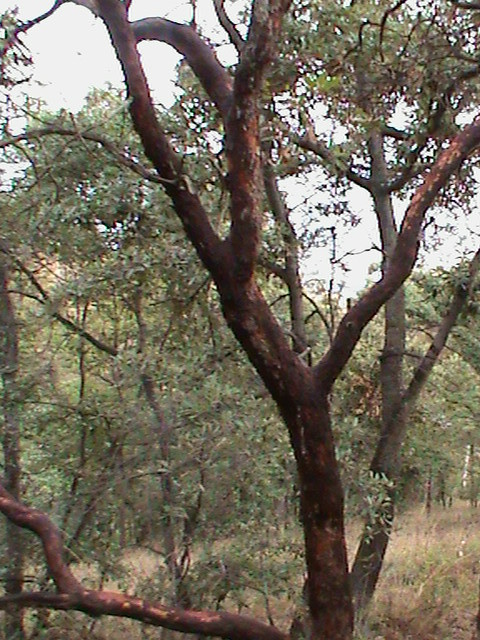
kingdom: Plantae
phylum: Tracheophyta
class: Magnoliopsida
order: Ericales
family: Ericaceae
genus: Arbutus
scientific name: Arbutus xalapensis
